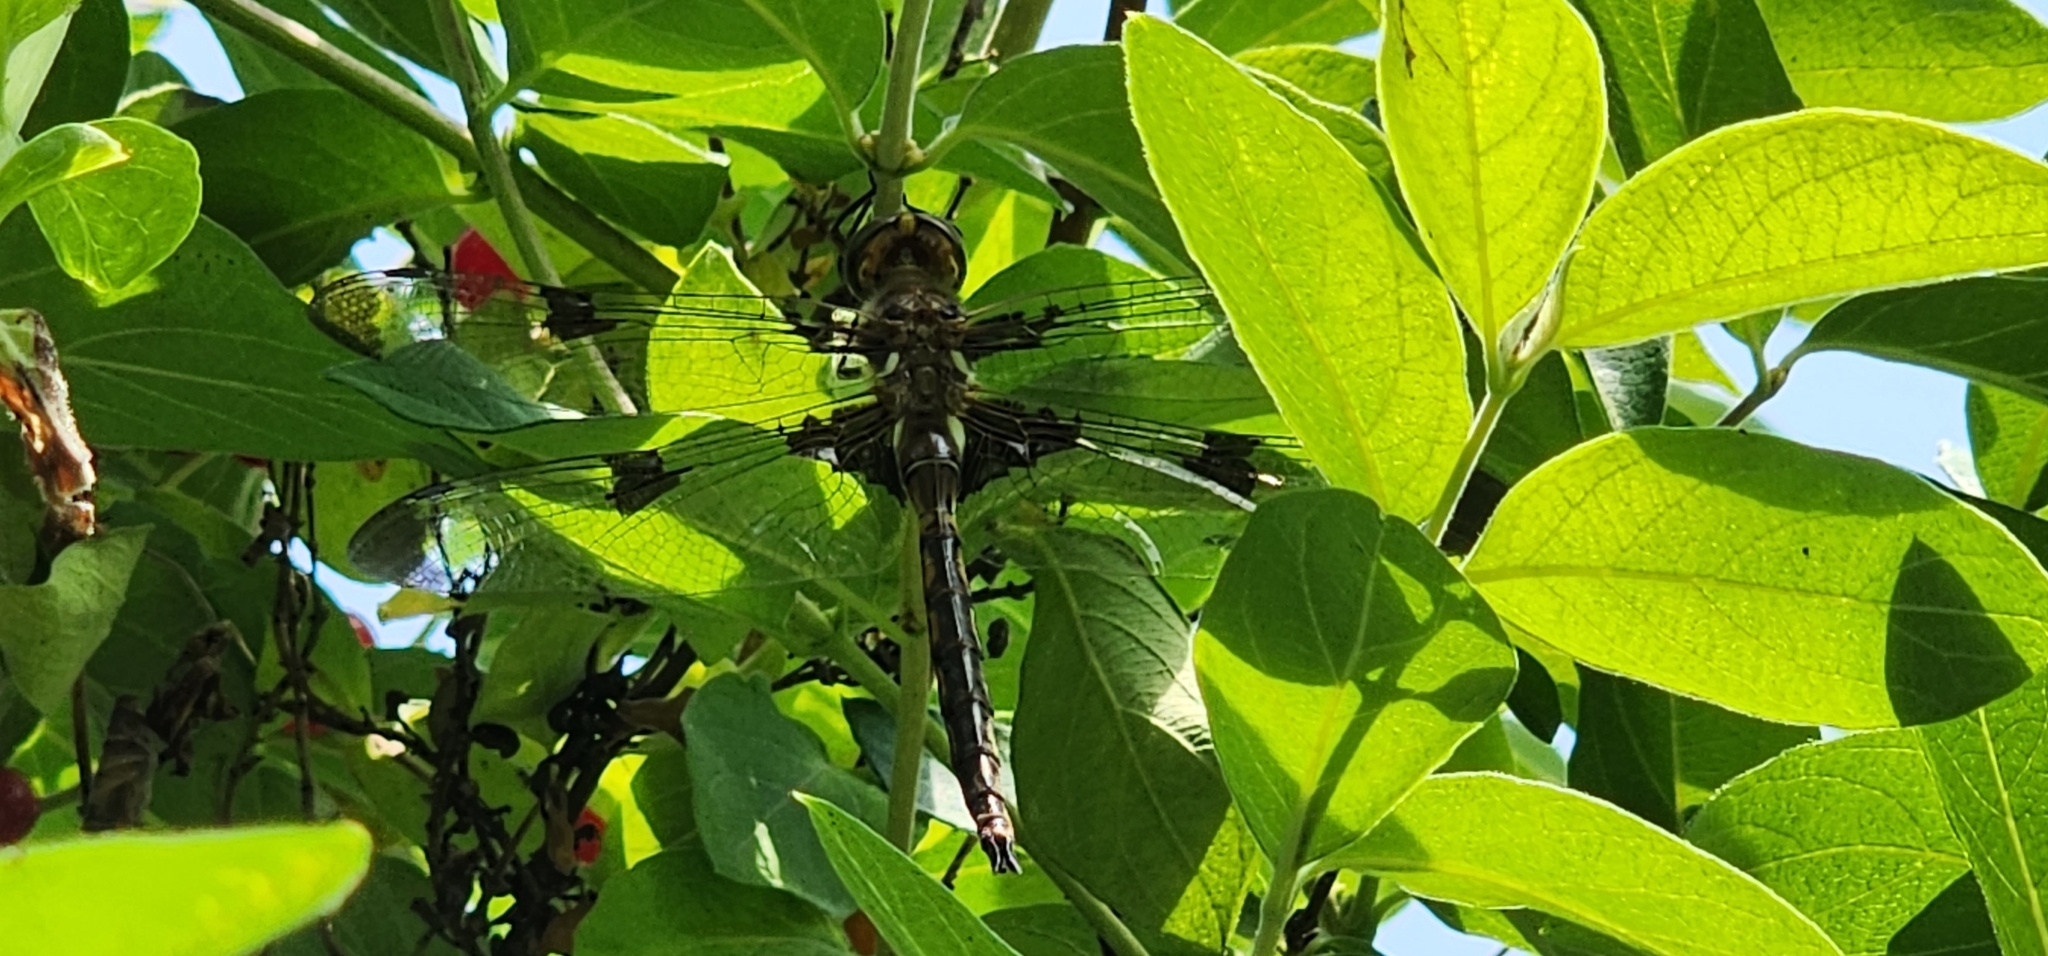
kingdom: Animalia
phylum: Arthropoda
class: Insecta
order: Odonata
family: Corduliidae
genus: Epitheca
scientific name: Epitheca princeps
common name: Prince baskettail
